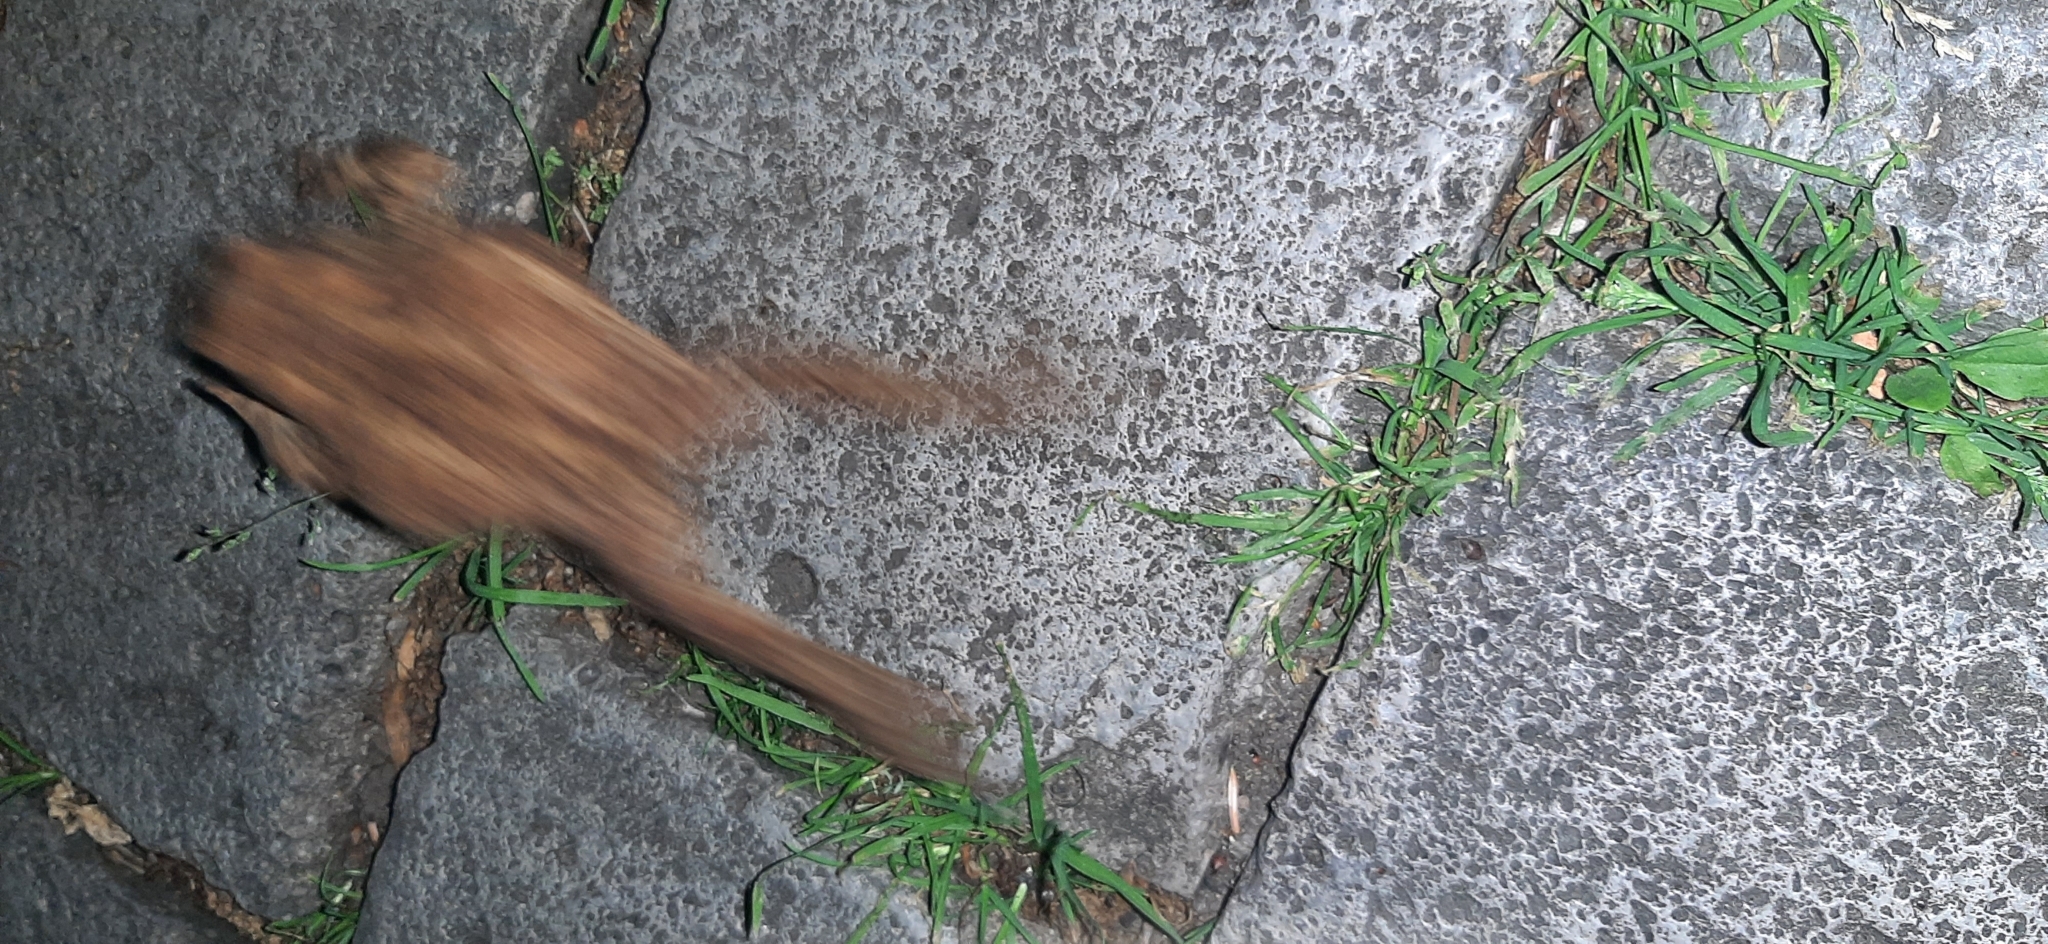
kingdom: Animalia
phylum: Chordata
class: Amphibia
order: Anura
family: Bufonidae
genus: Bufo
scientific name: Bufo bufo
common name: Common toad
